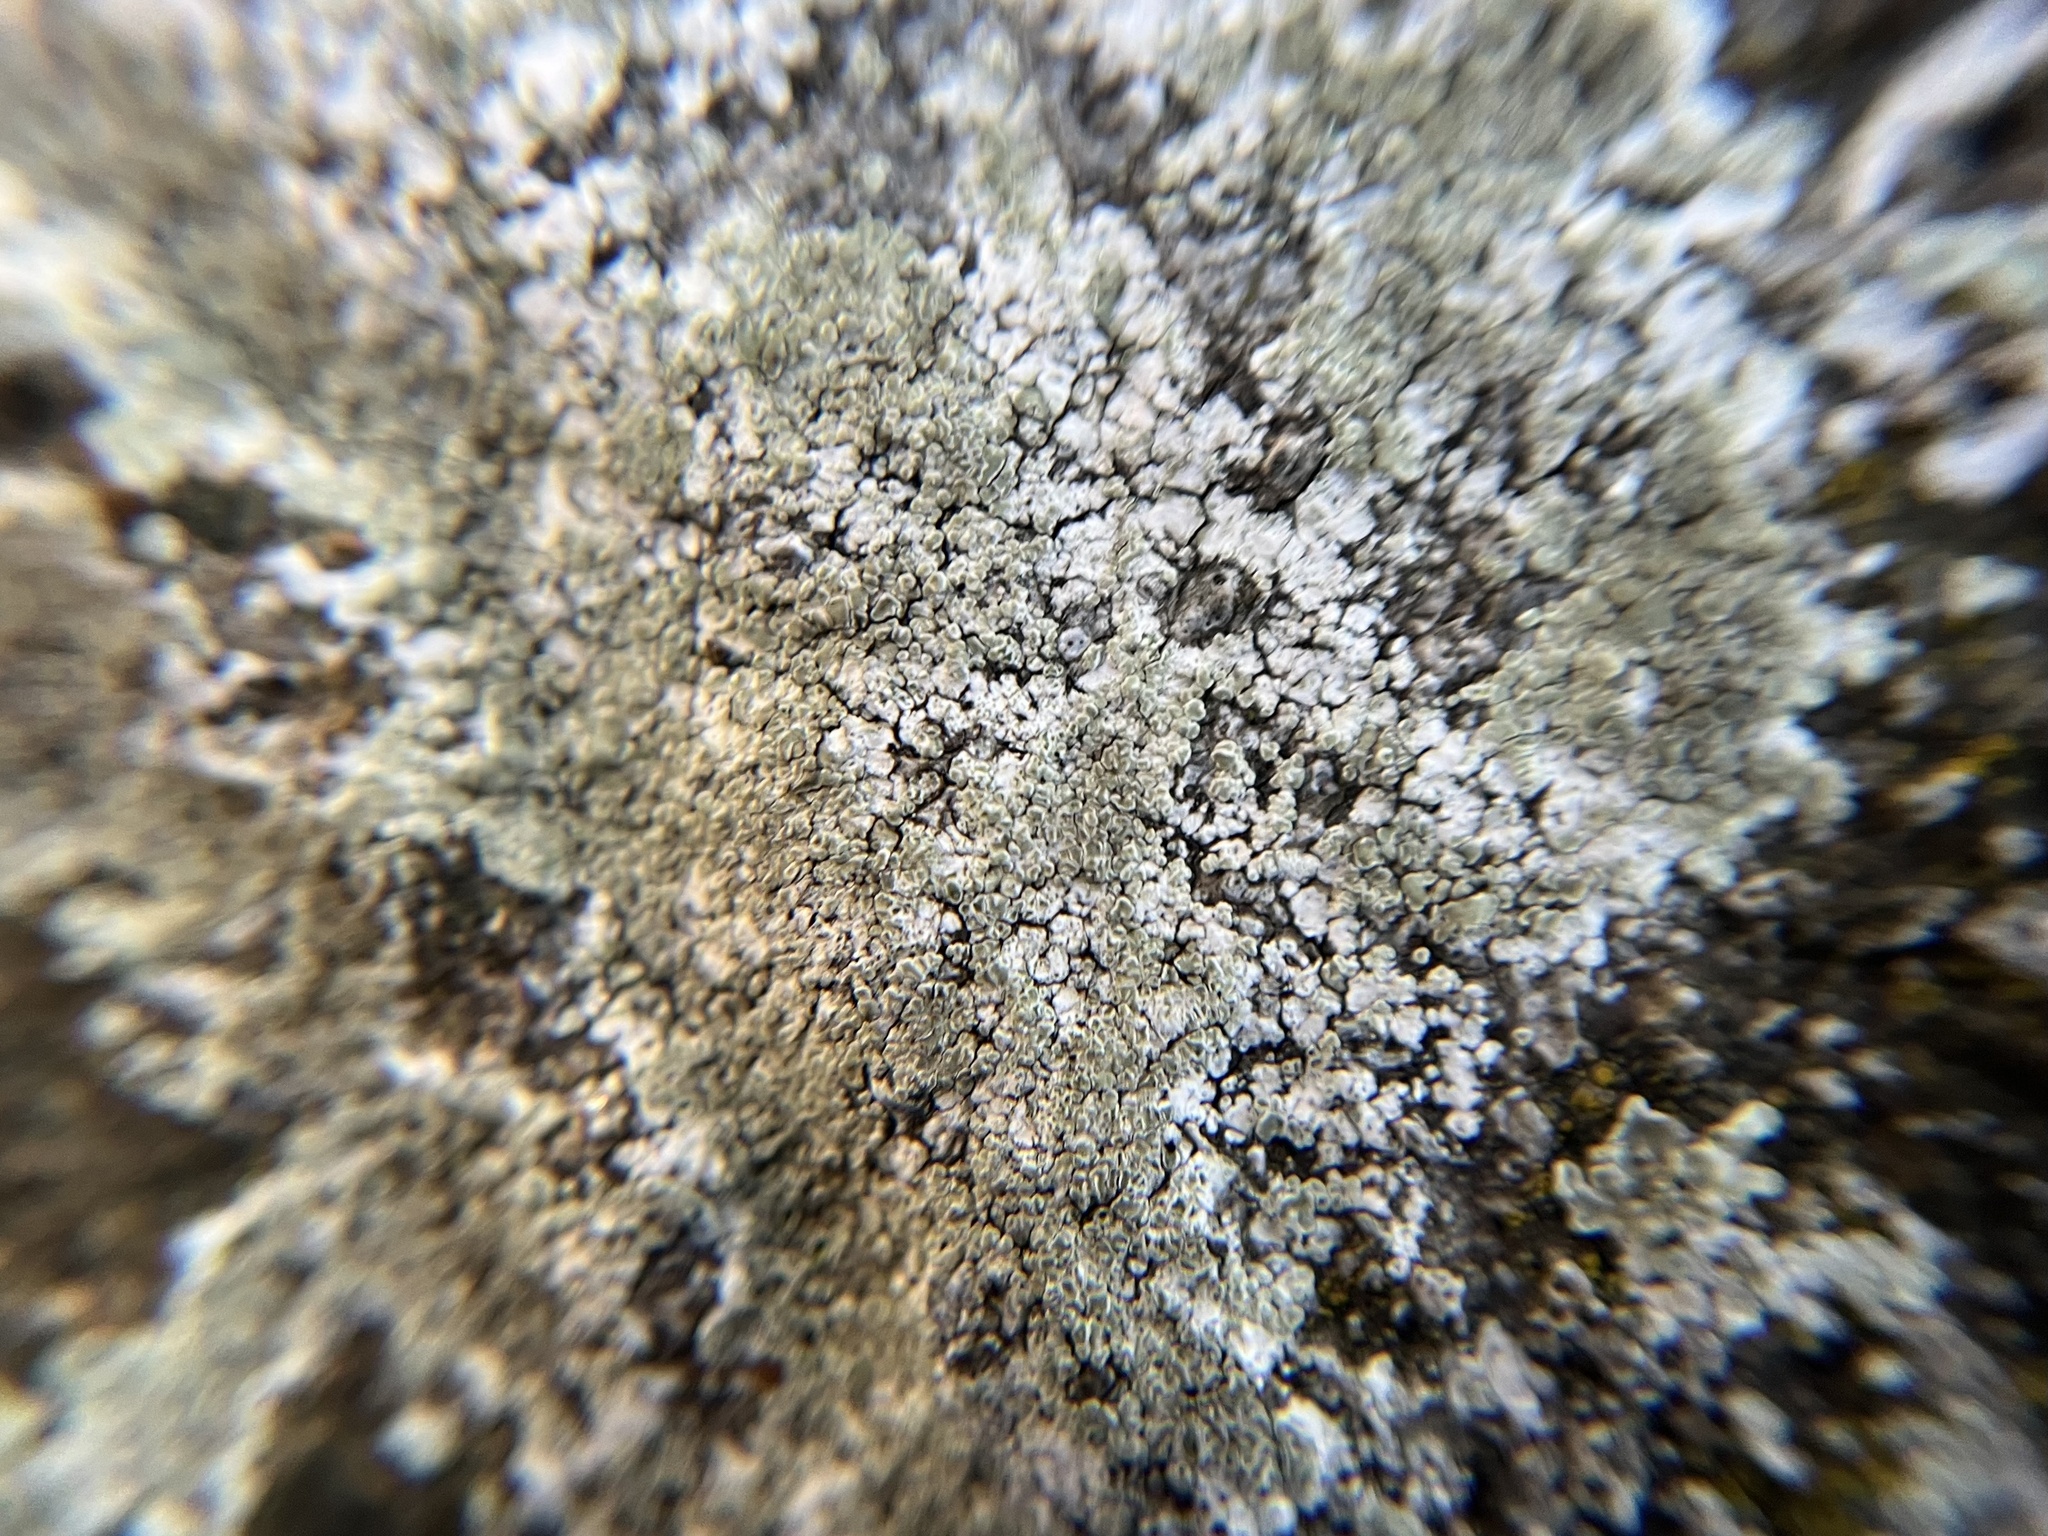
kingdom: Fungi
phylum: Ascomycota
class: Lecanoromycetes
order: Lecanorales
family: Lecanoraceae
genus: Protoparmeliopsis
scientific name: Protoparmeliopsis muralis
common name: Stonewall rim lichen
